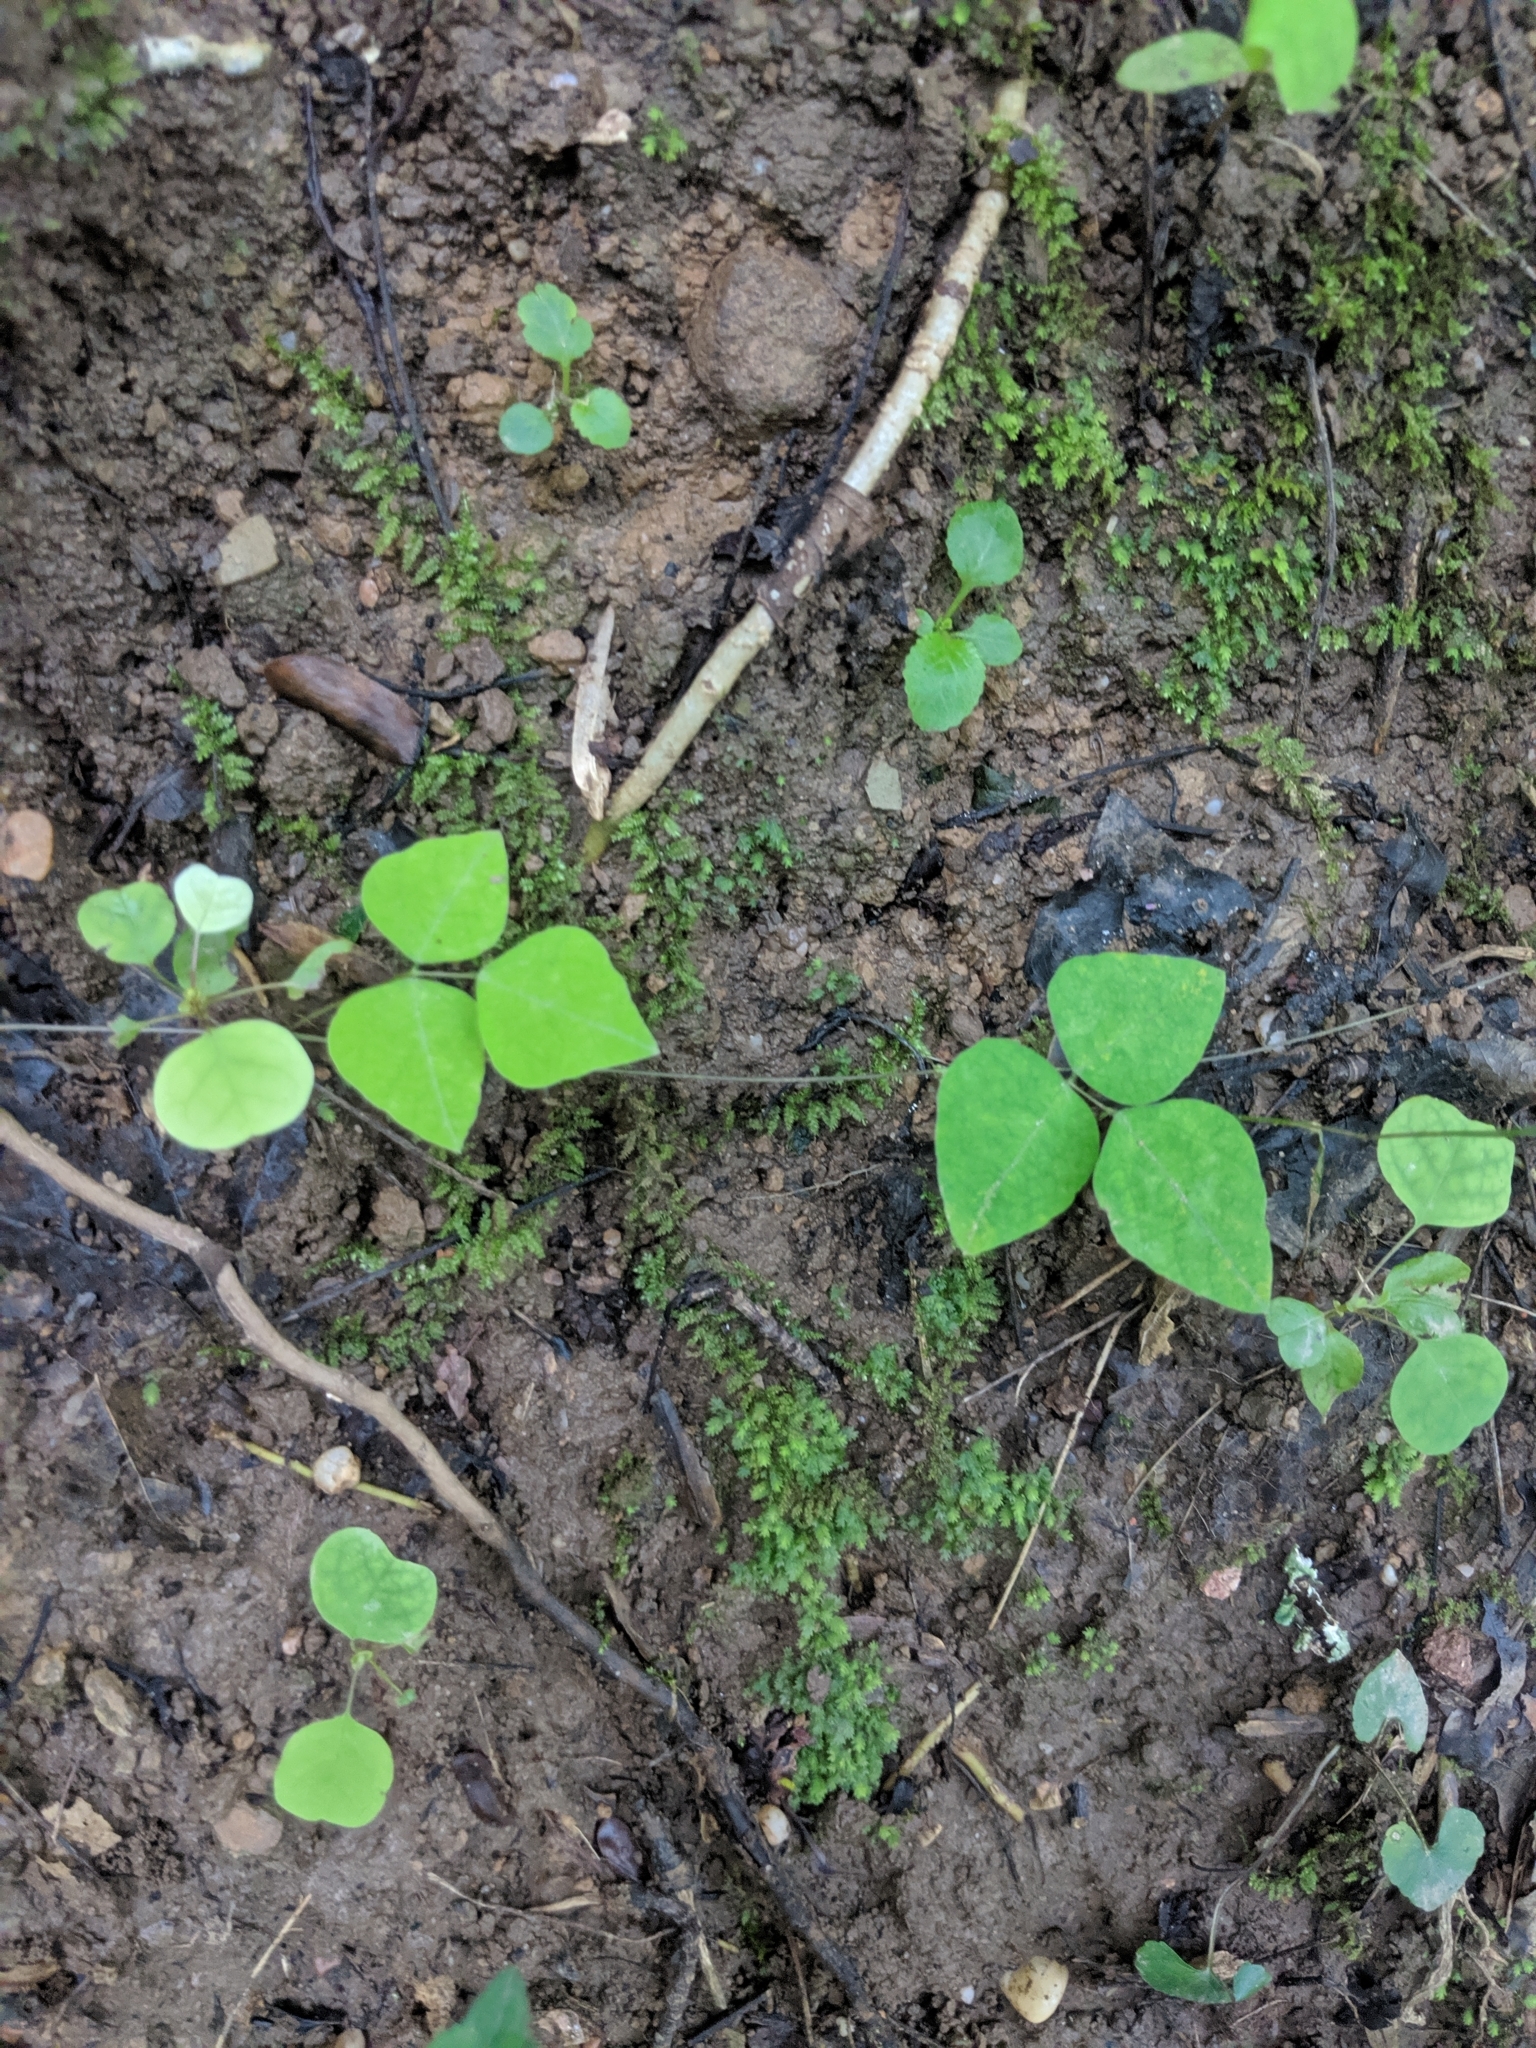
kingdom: Plantae
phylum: Tracheophyta
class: Magnoliopsida
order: Fabales
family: Fabaceae
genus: Amphicarpaea
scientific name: Amphicarpaea bracteata
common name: American hog peanut
